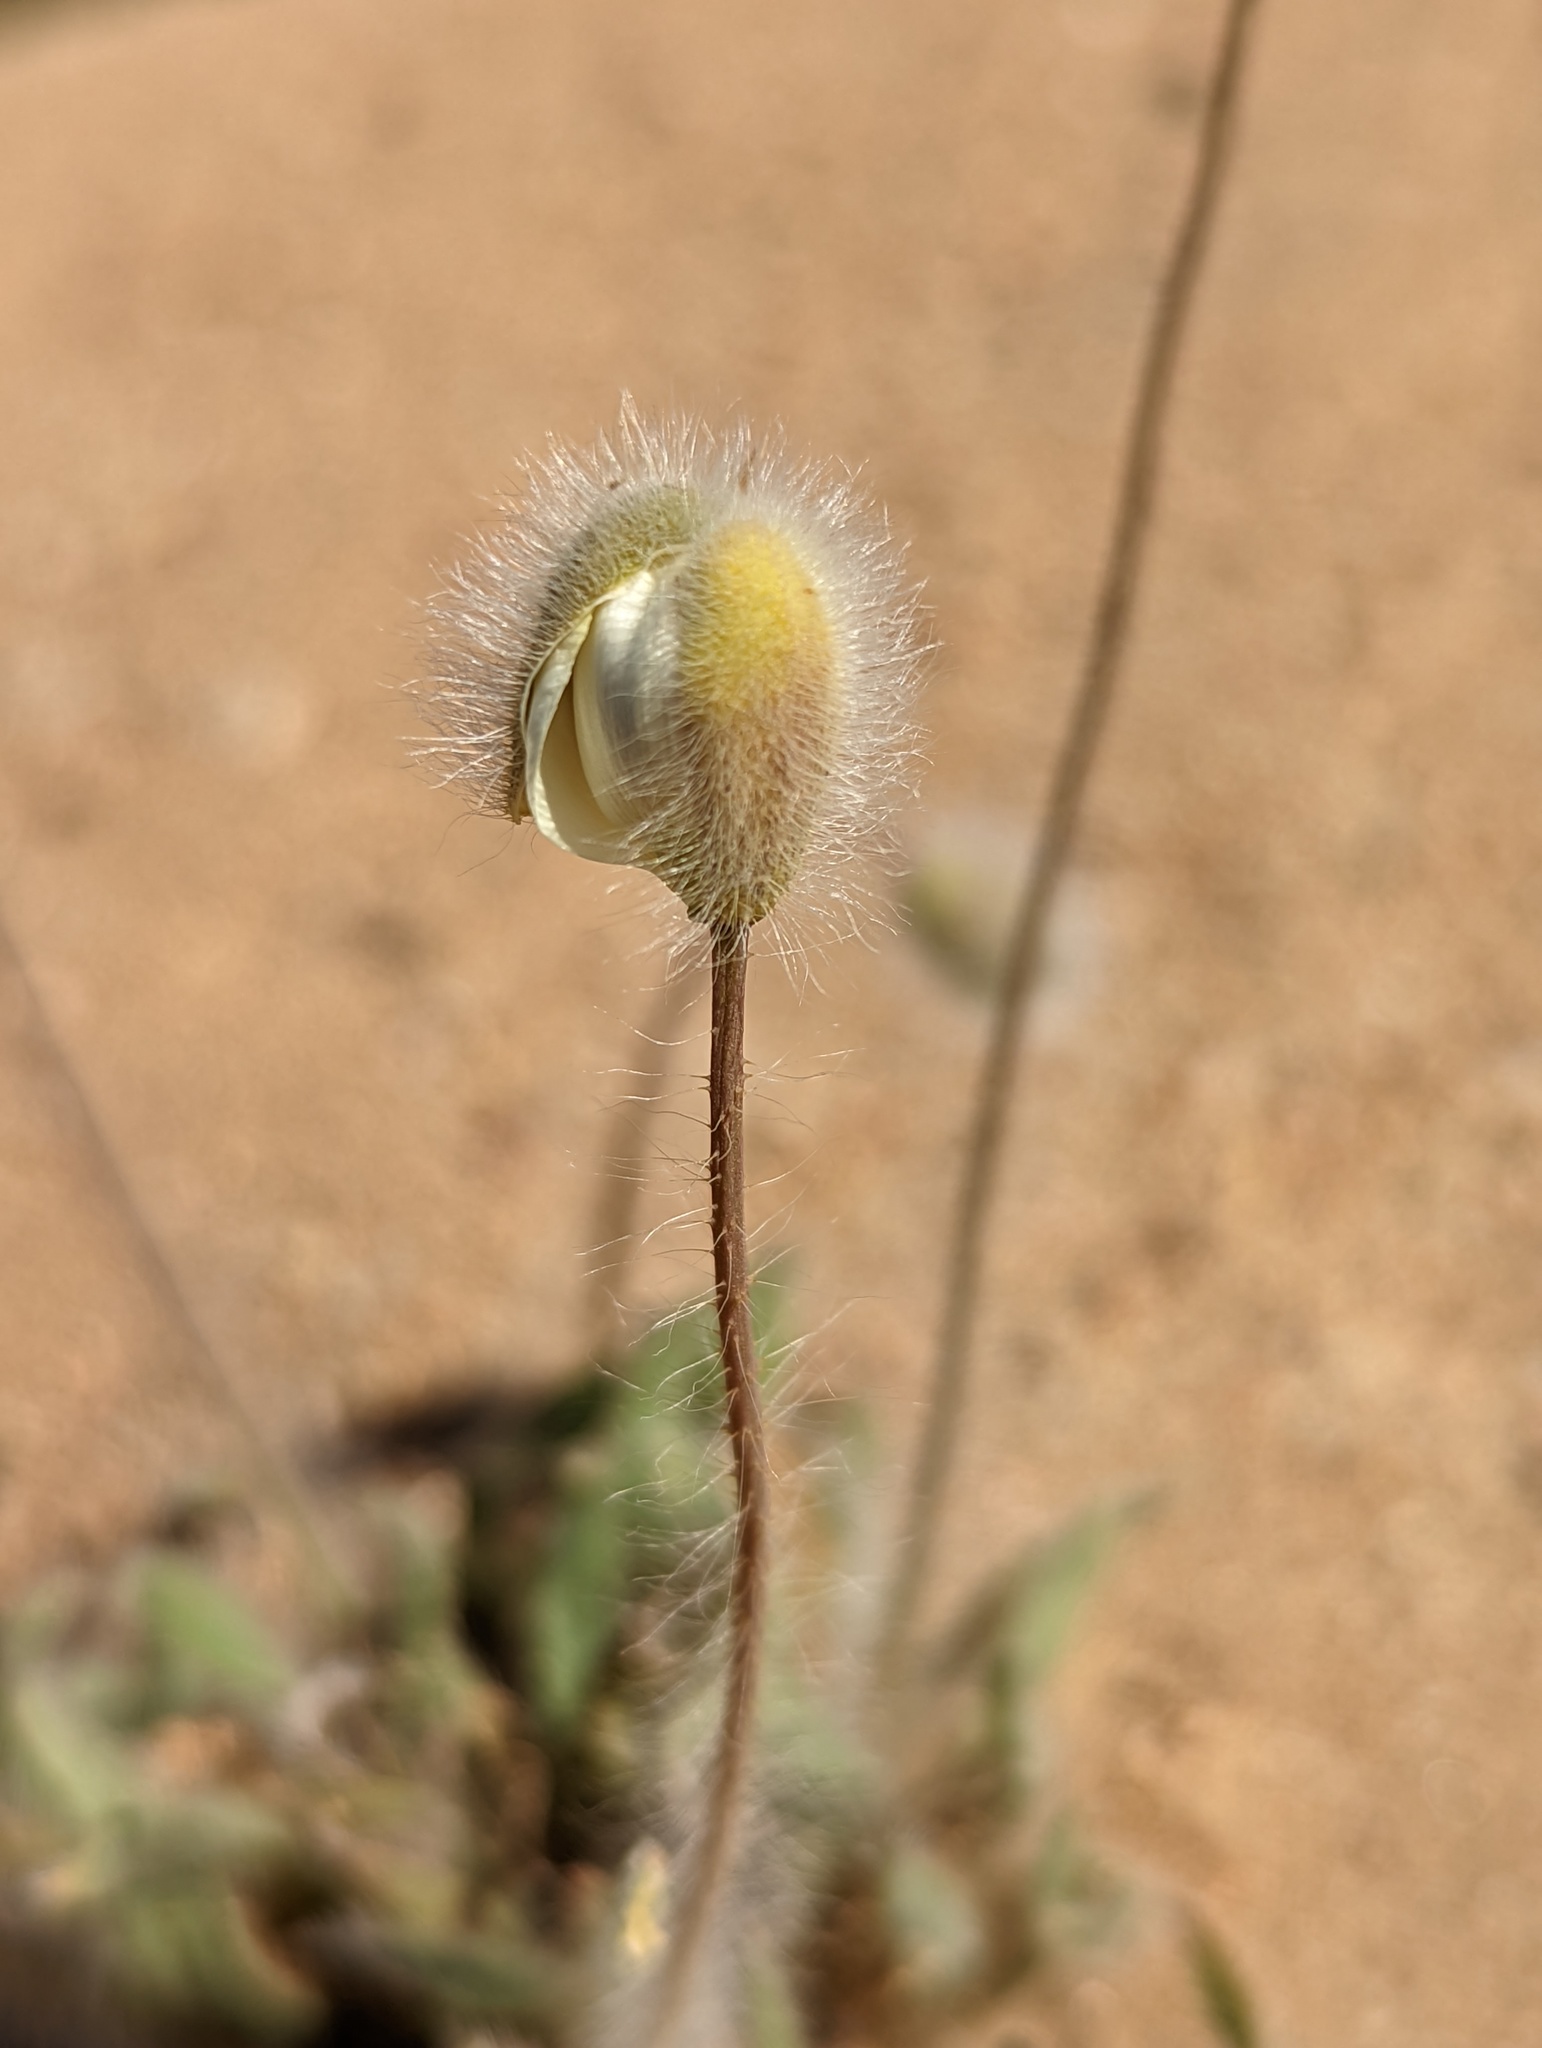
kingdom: Plantae
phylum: Tracheophyta
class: Magnoliopsida
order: Ranunculales
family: Papaveraceae
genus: Platystemon
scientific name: Platystemon californicus
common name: Cream-cups
